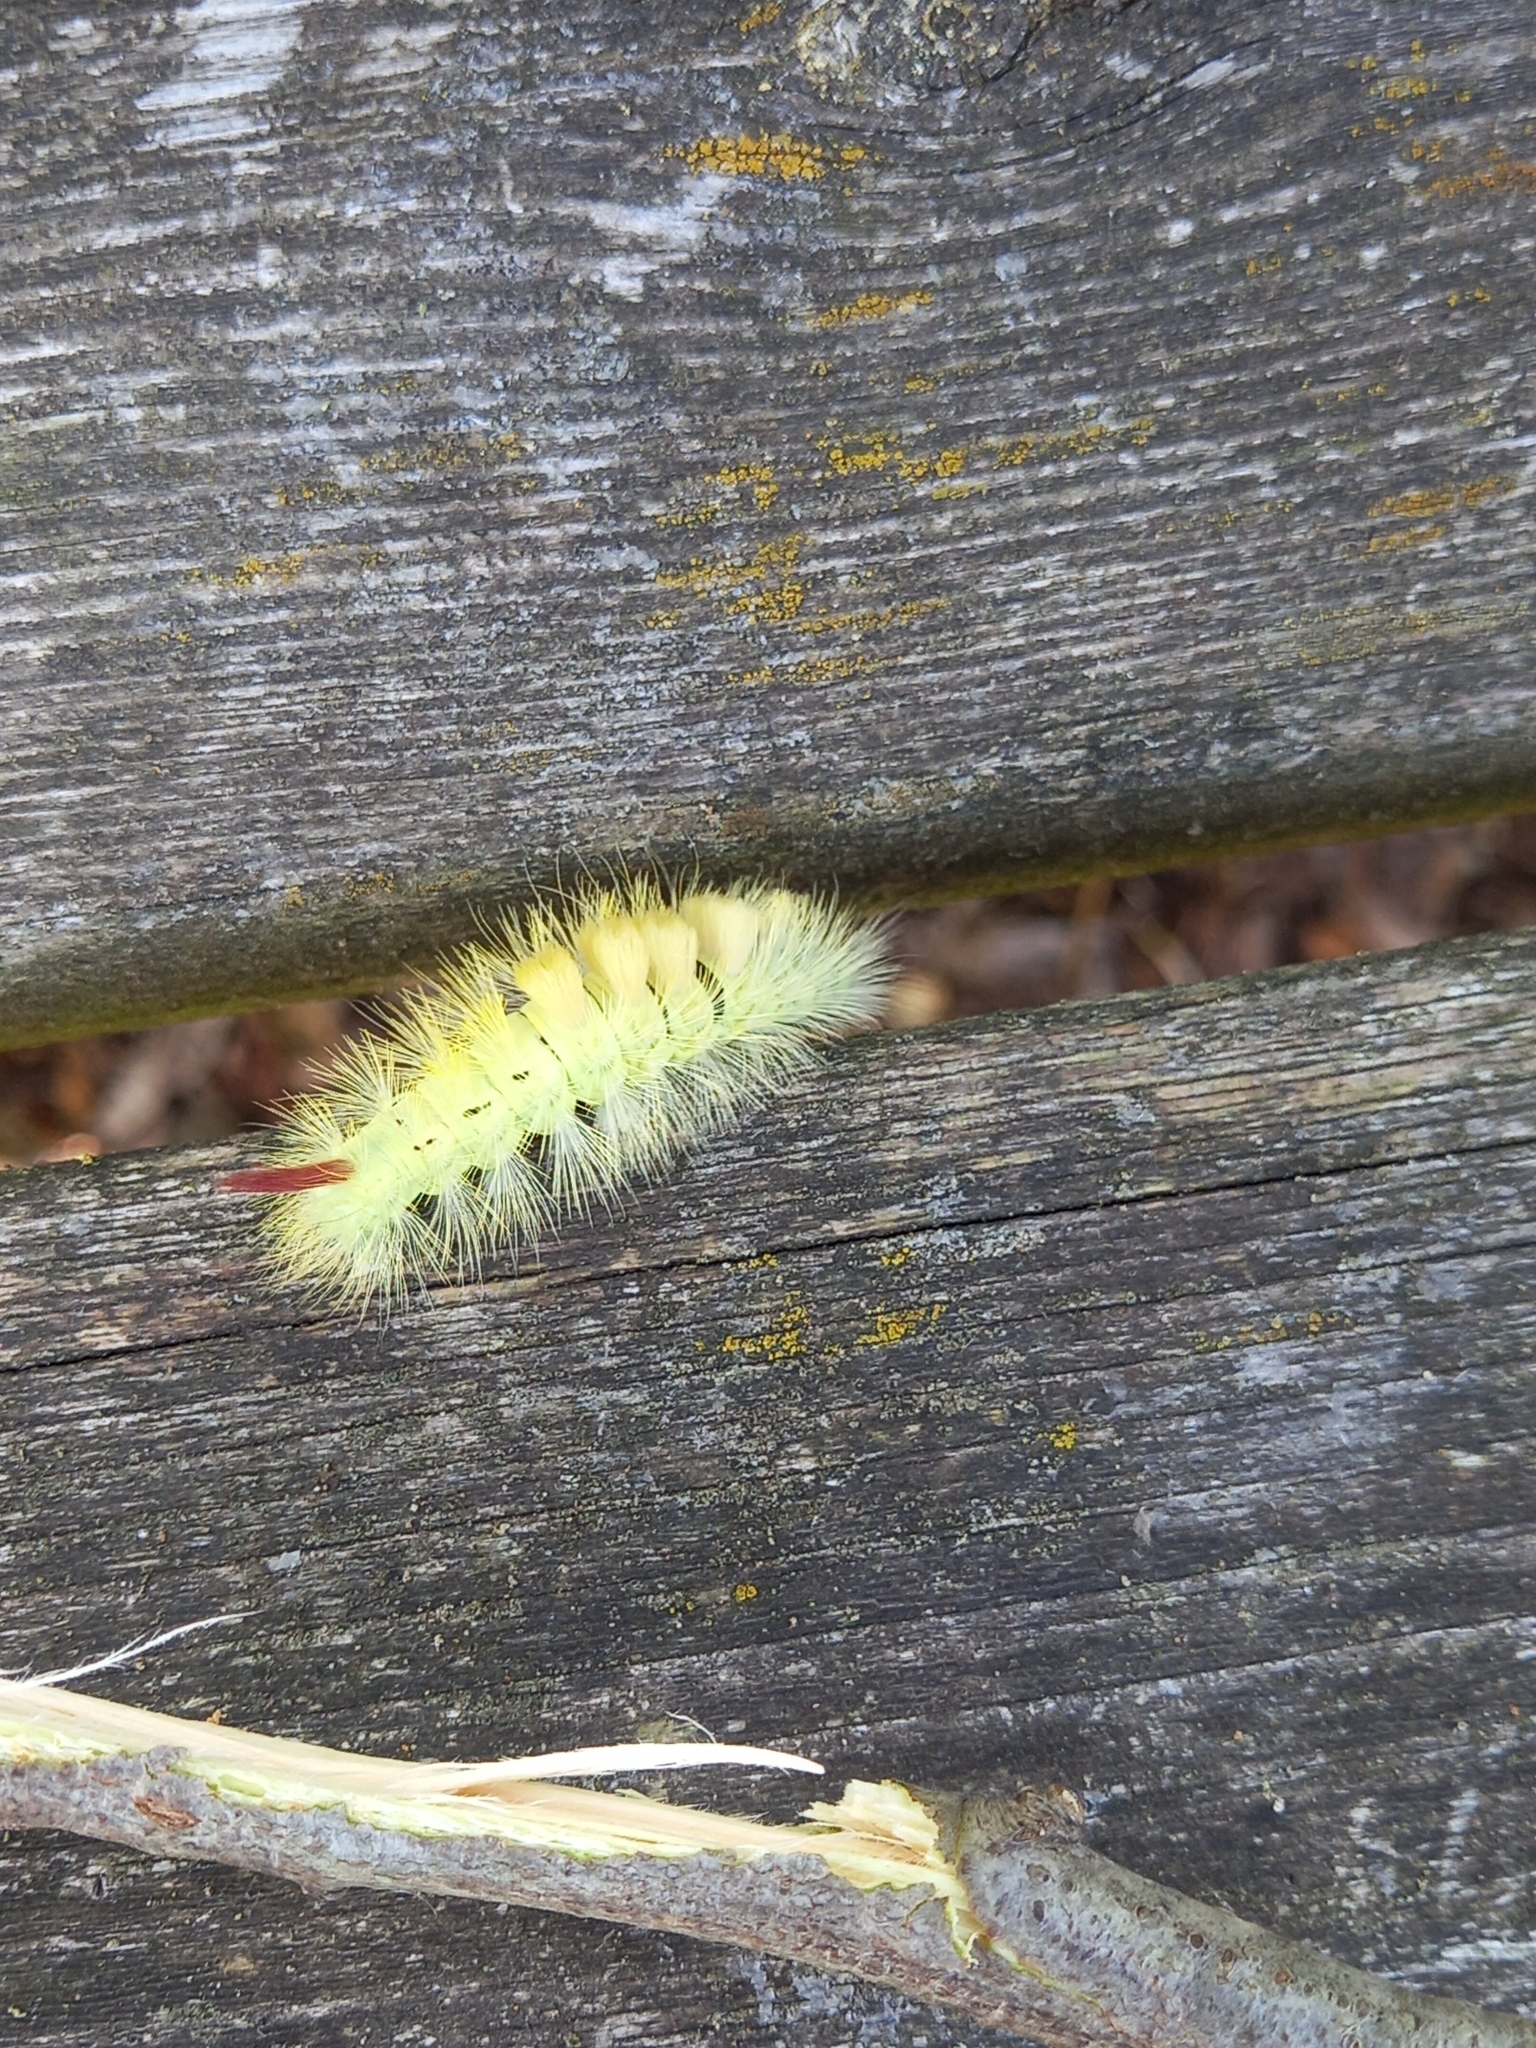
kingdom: Animalia
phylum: Arthropoda
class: Insecta
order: Lepidoptera
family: Erebidae
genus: Calliteara
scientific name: Calliteara pudibunda
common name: Pale tussock
